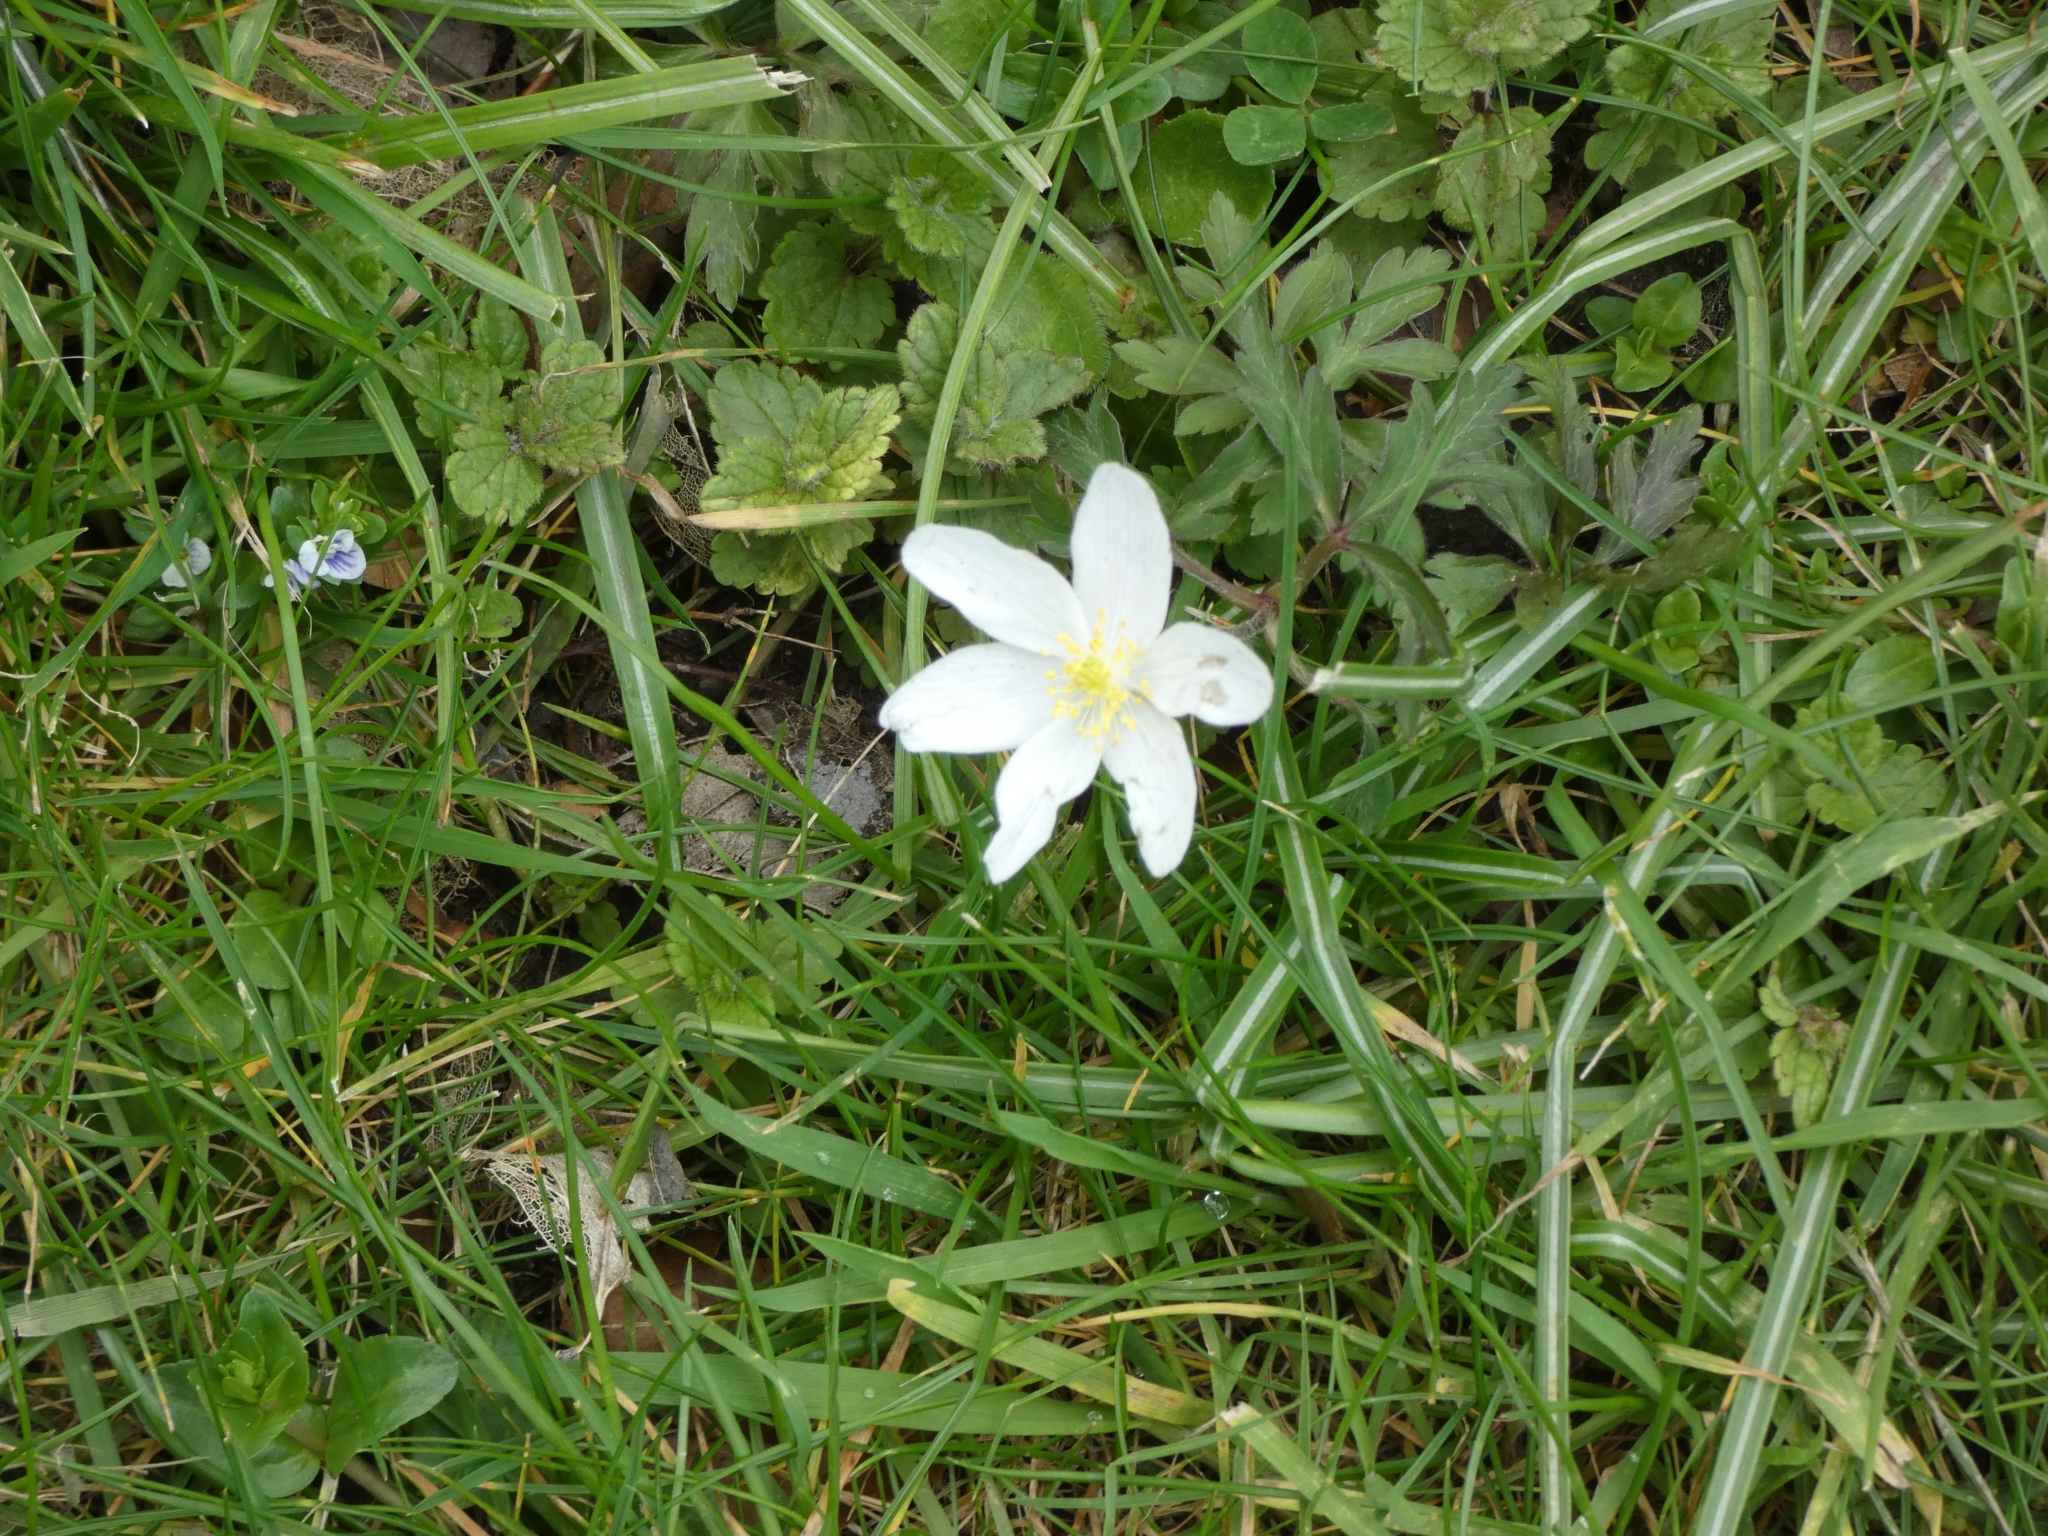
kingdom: Plantae
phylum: Tracheophyta
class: Magnoliopsida
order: Ranunculales
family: Ranunculaceae
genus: Anemone
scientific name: Anemone nemorosa
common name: Wood anemone
